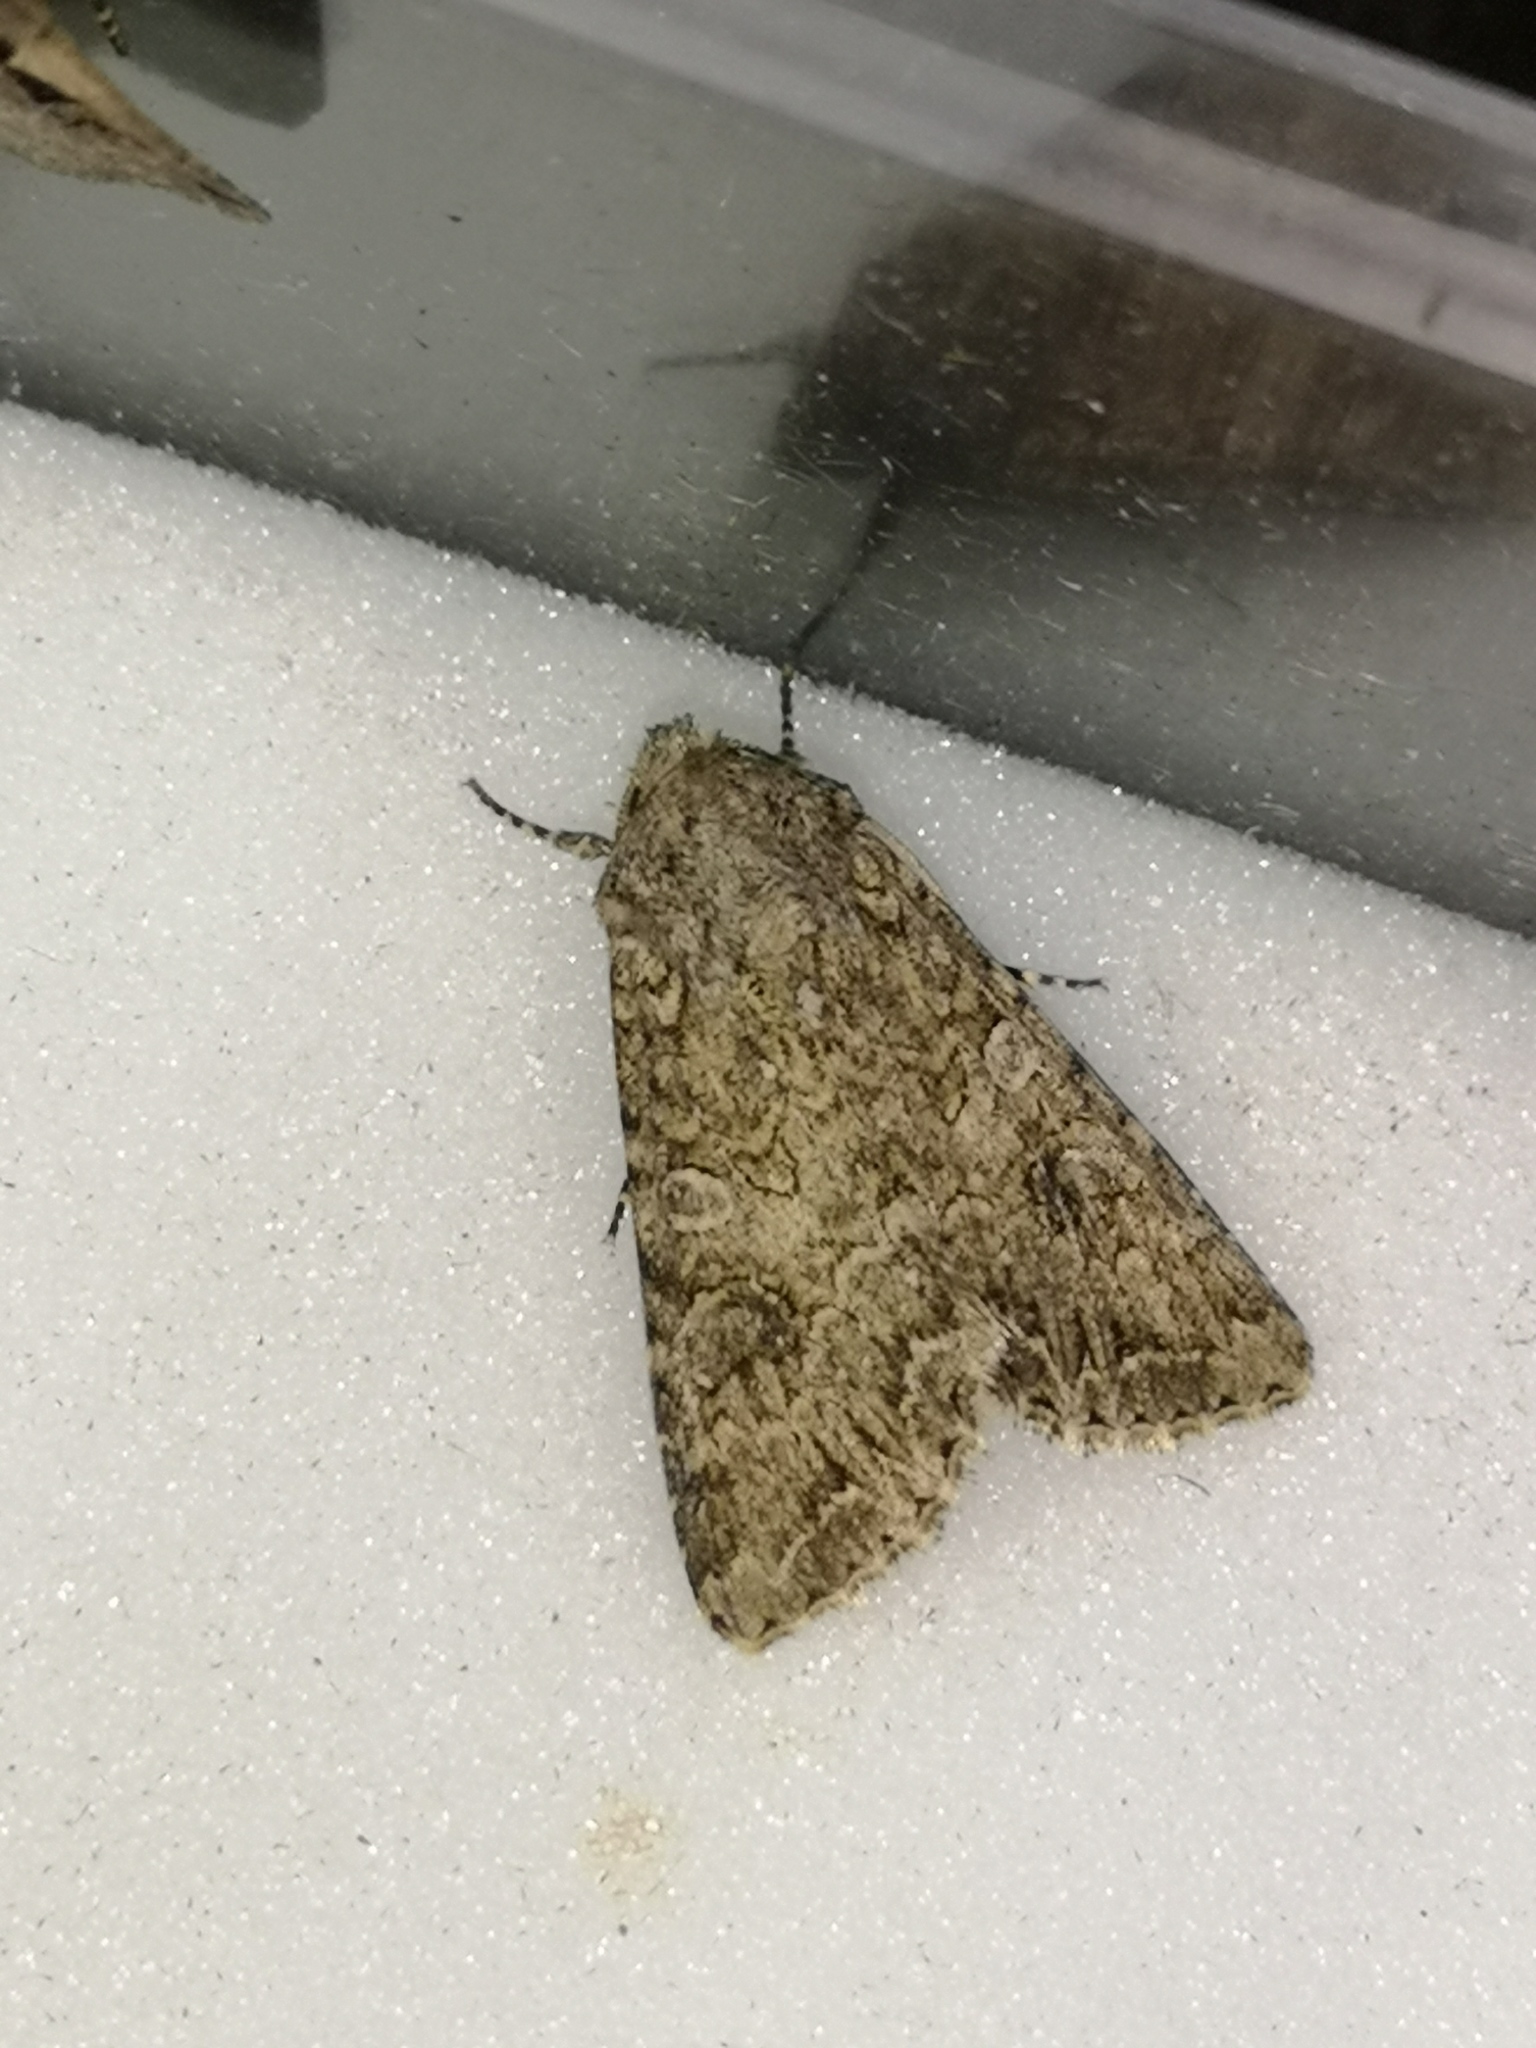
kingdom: Animalia
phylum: Arthropoda
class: Insecta
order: Lepidoptera
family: Noctuidae
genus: Anarta
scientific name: Anarta trifolii
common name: Clover cutworm moth
